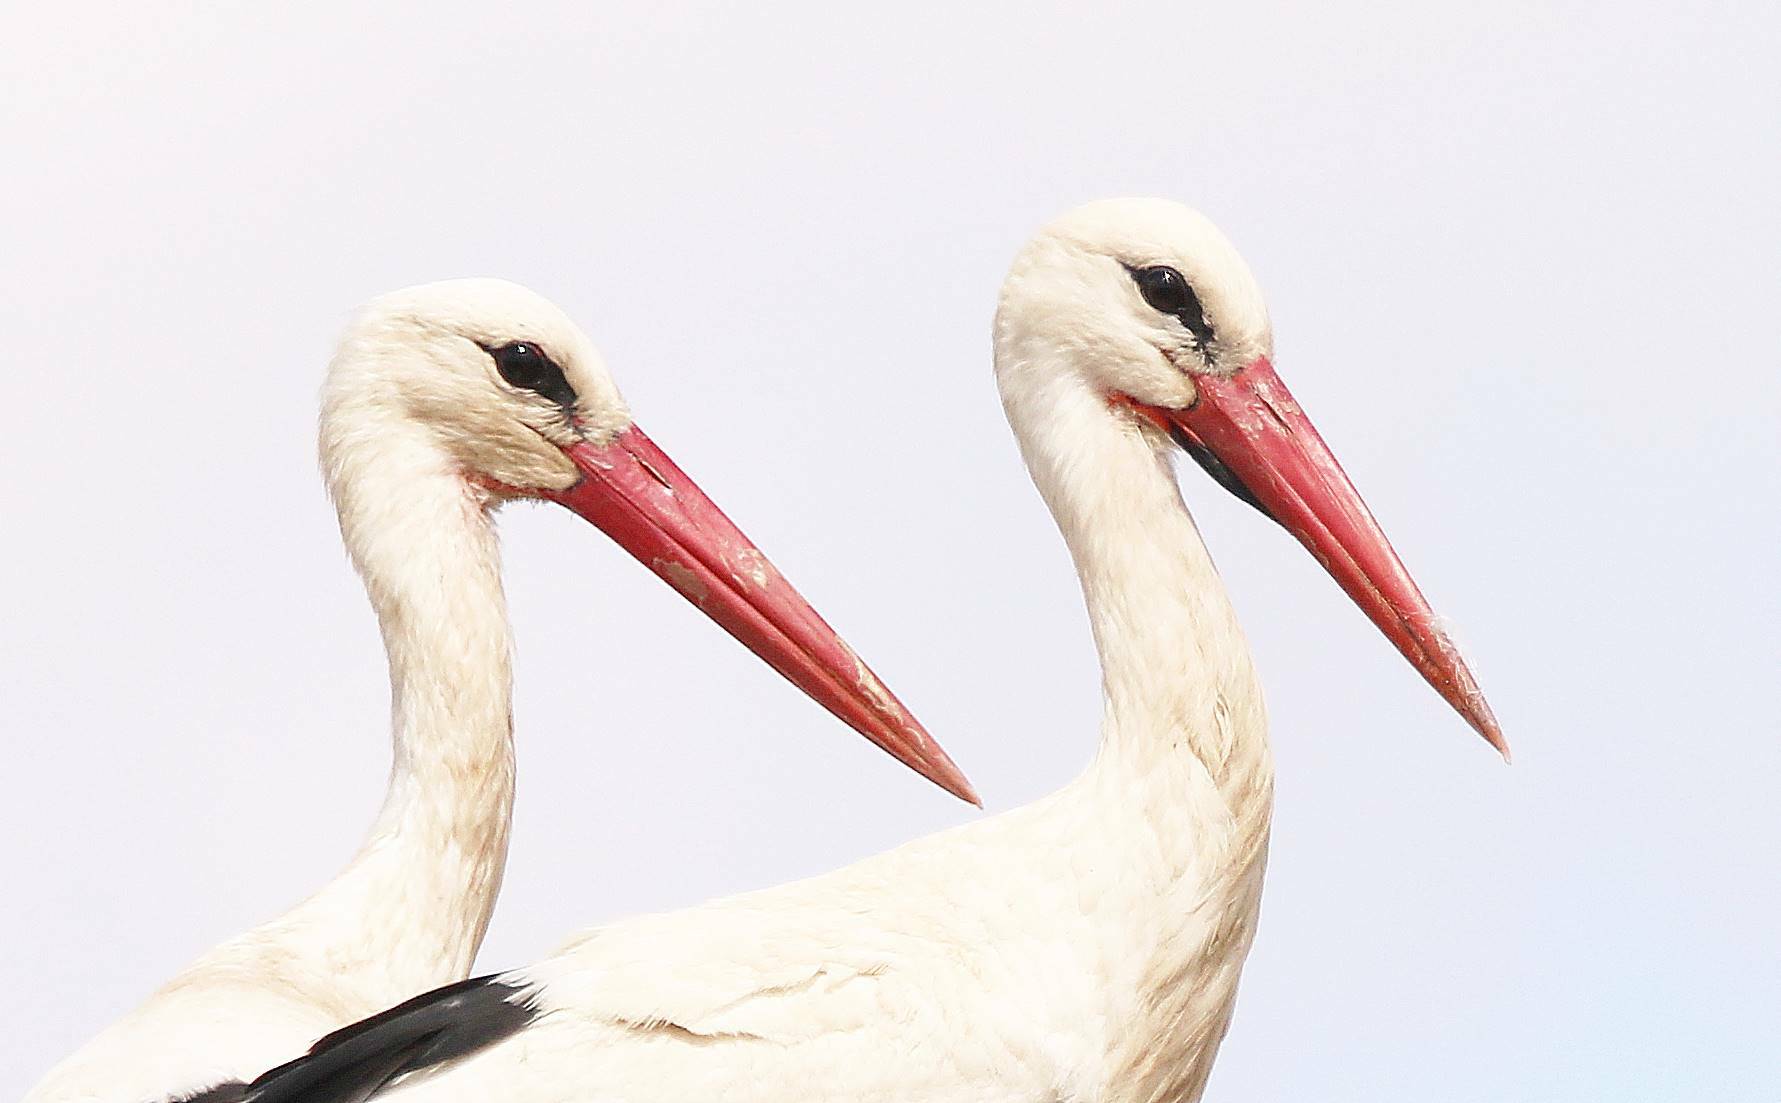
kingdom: Animalia
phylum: Chordata
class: Aves
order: Ciconiiformes
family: Ciconiidae
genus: Ciconia
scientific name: Ciconia ciconia
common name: White stork
